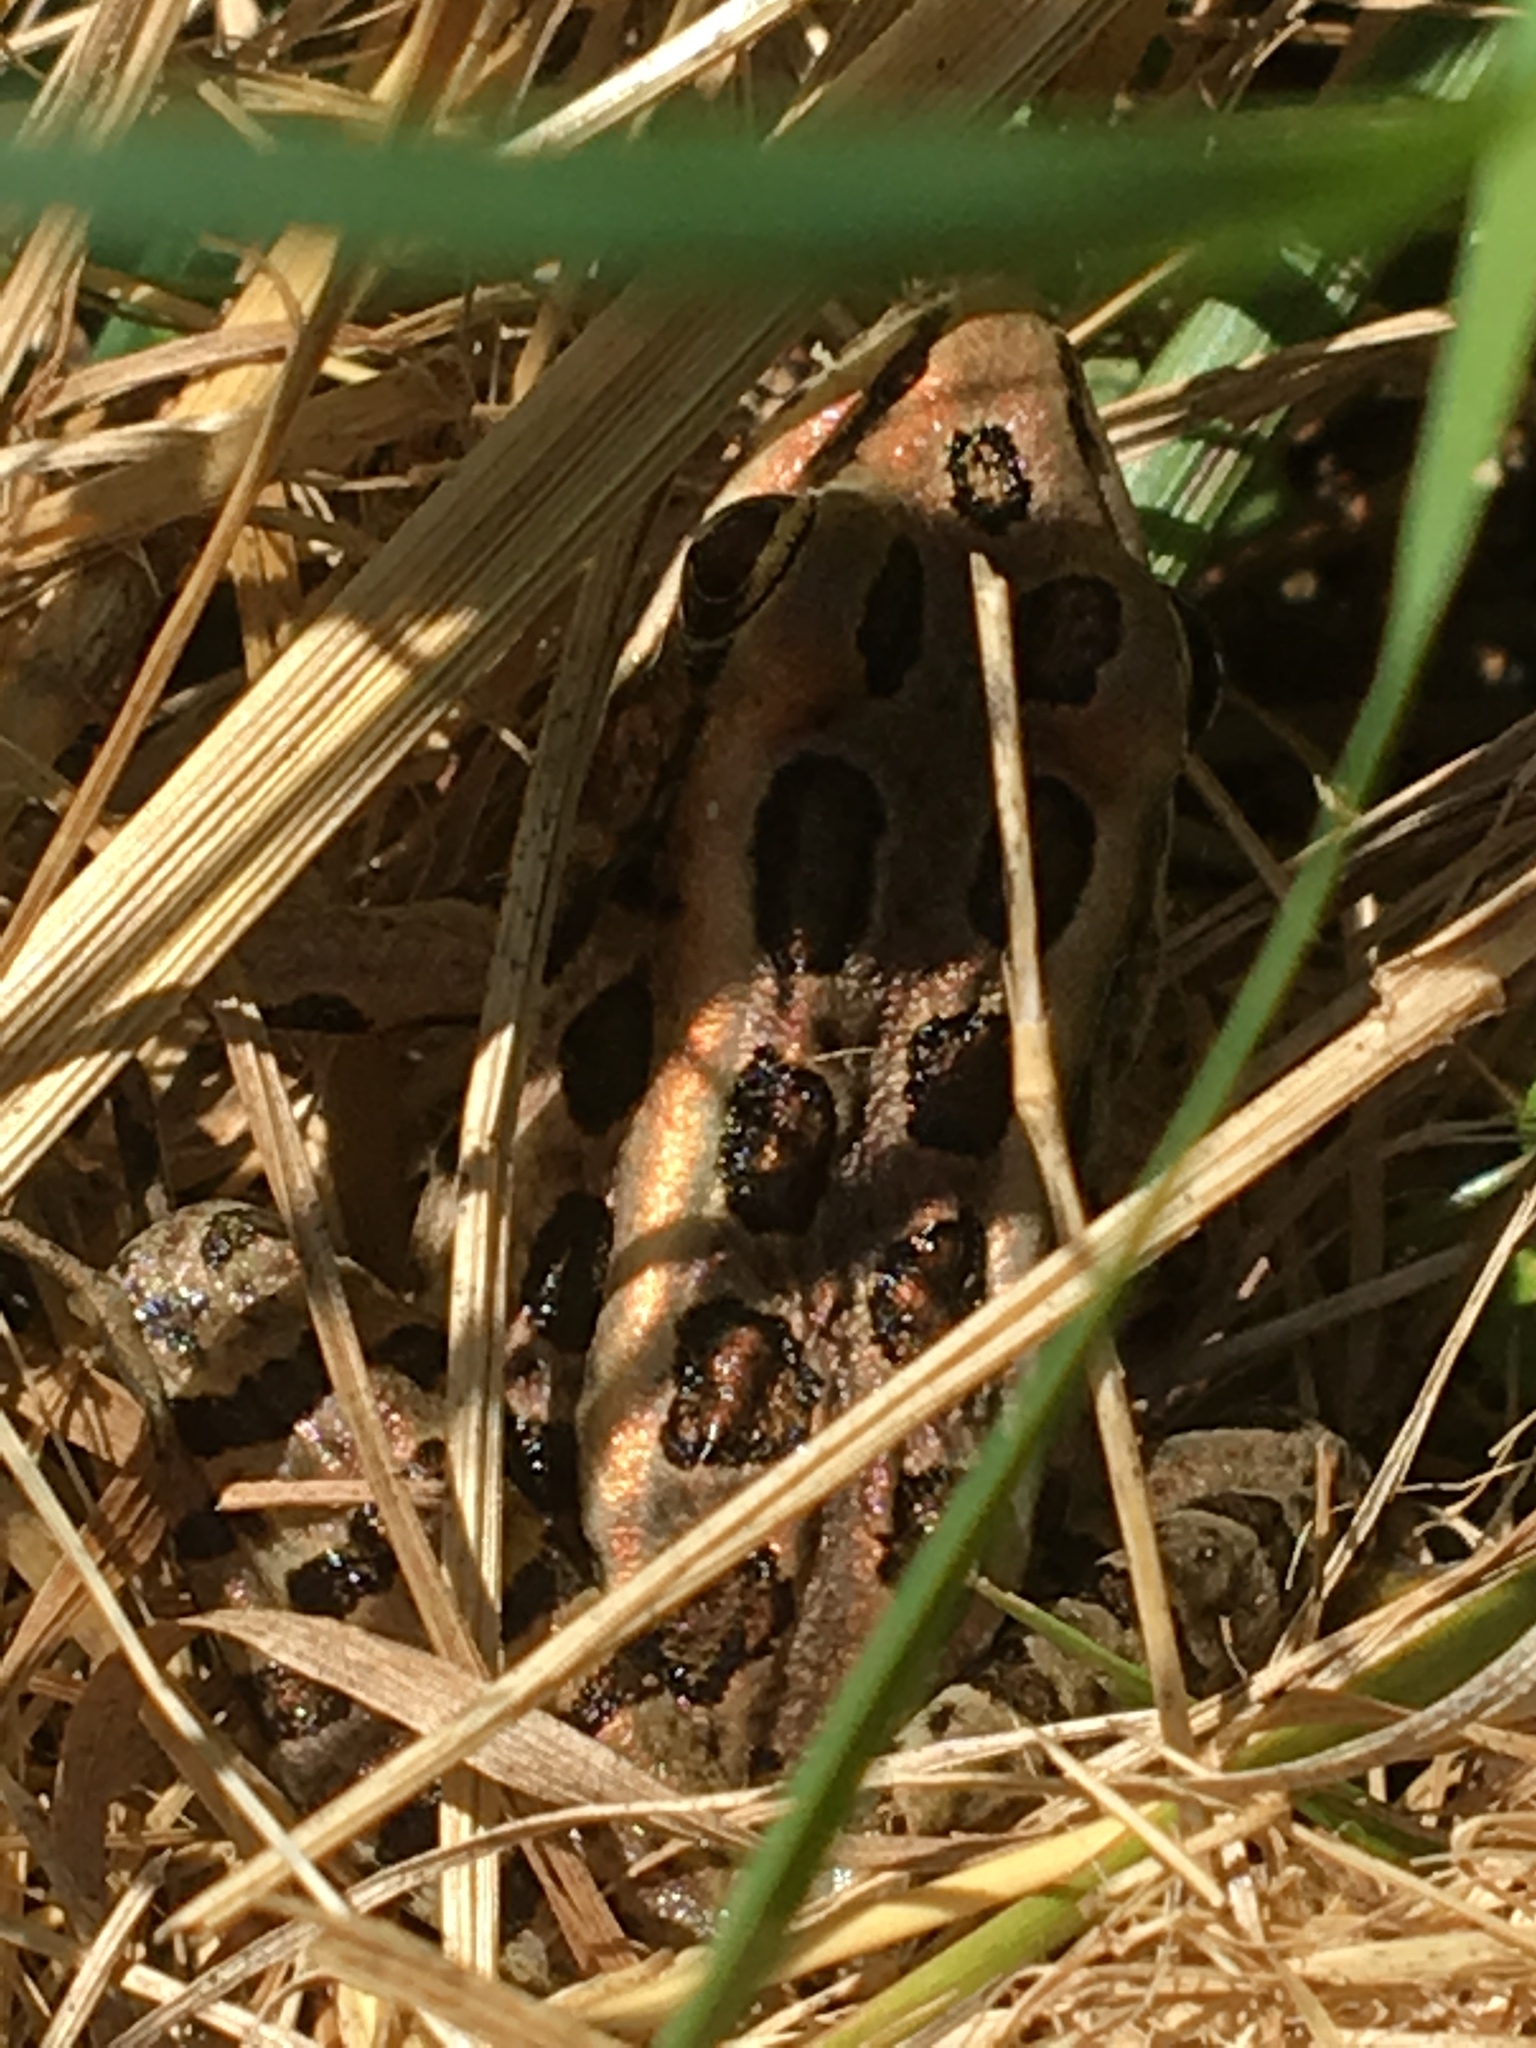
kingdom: Animalia
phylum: Chordata
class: Amphibia
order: Anura
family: Ranidae
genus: Lithobates
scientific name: Lithobates palustris
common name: Pickerel frog
